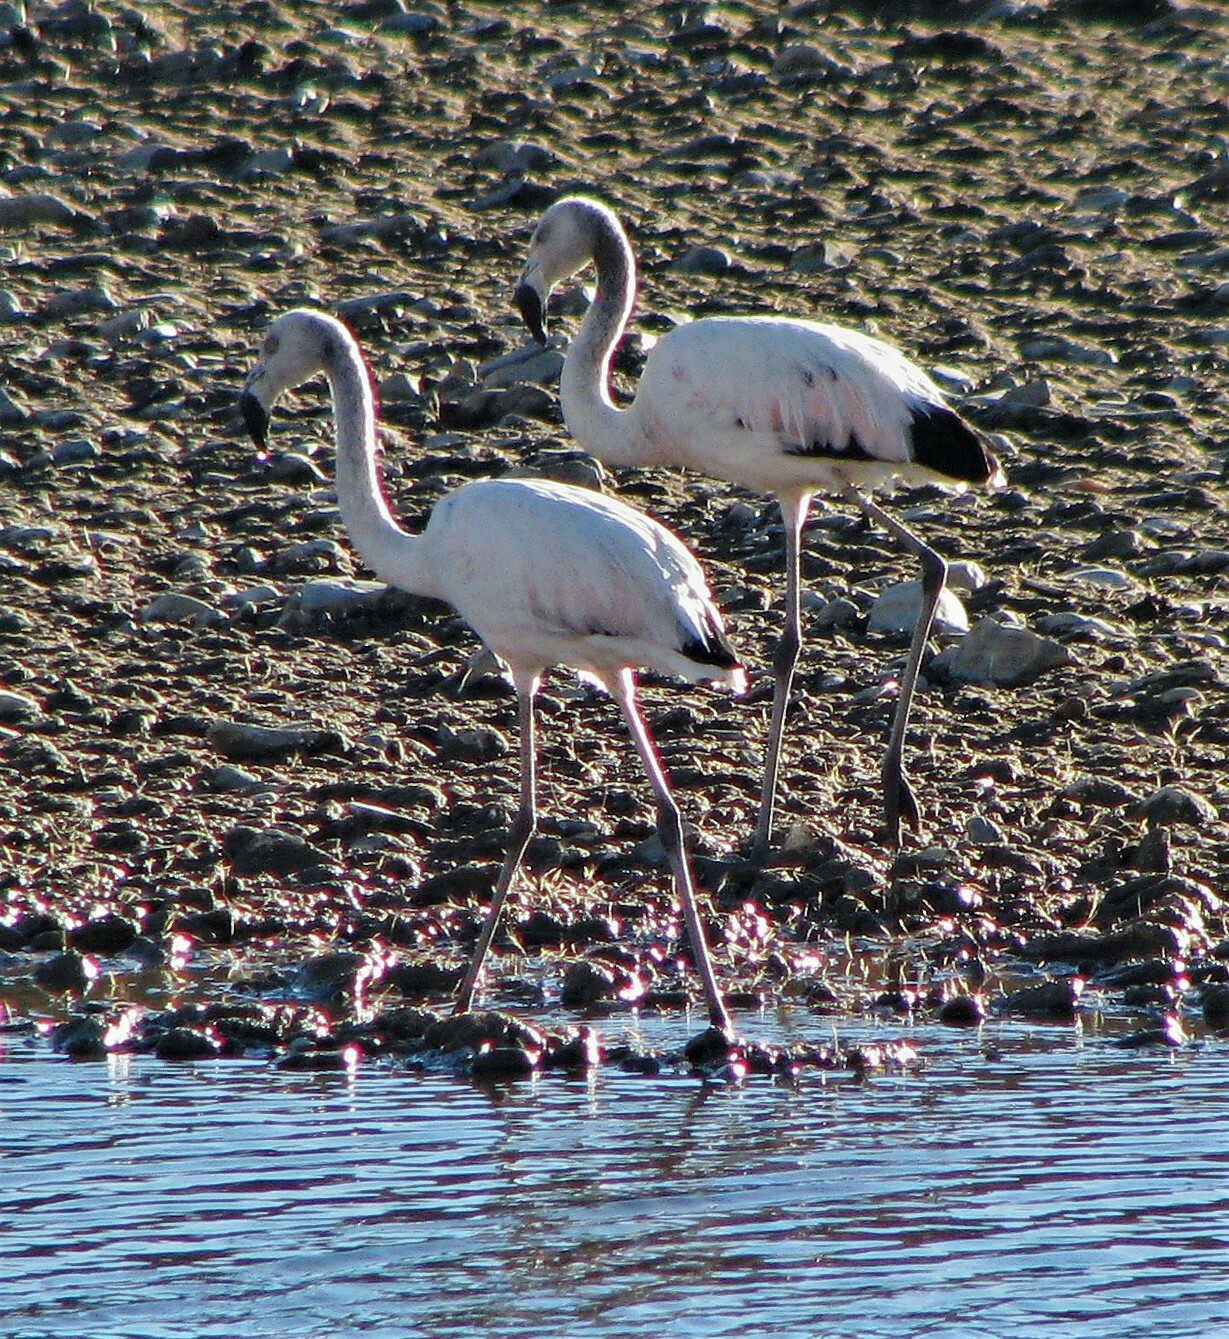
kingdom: Animalia
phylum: Chordata
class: Aves
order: Phoenicopteriformes
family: Phoenicopteridae
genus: Phoenicopterus
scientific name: Phoenicopterus chilensis
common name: Chilean flamingo
